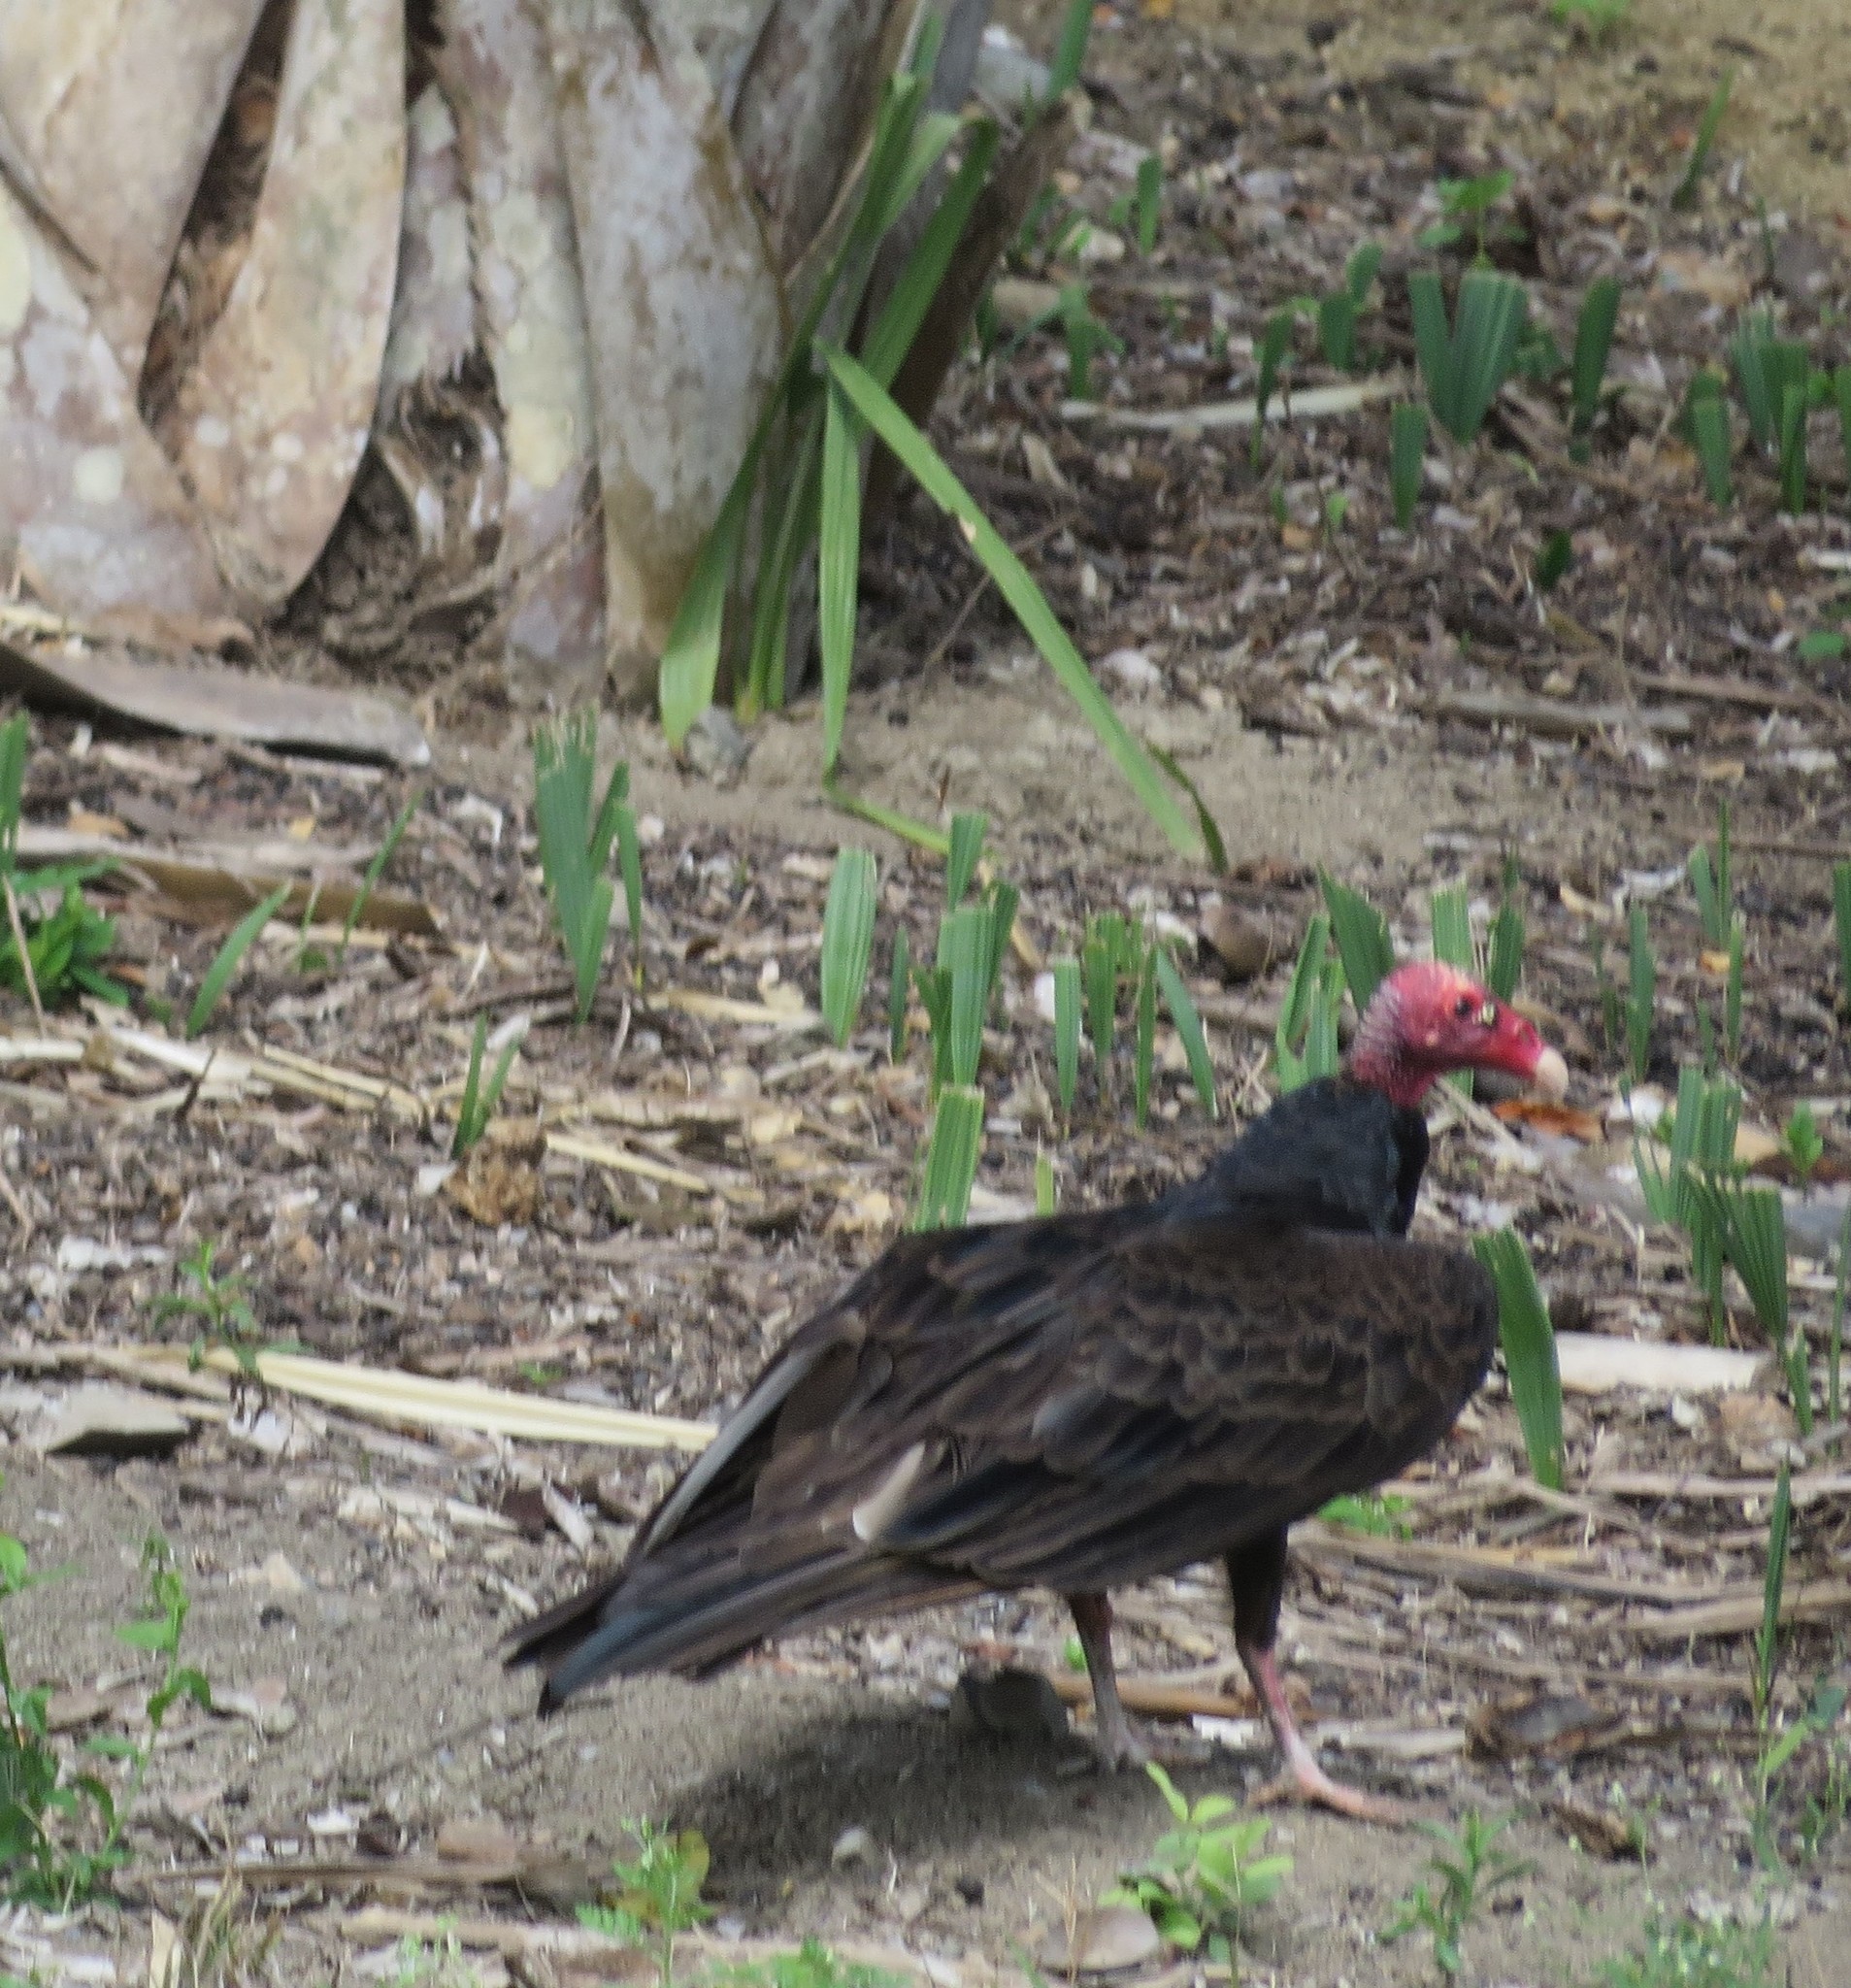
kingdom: Animalia
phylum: Chordata
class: Aves
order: Accipitriformes
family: Cathartidae
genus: Cathartes
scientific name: Cathartes aura
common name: Turkey vulture
